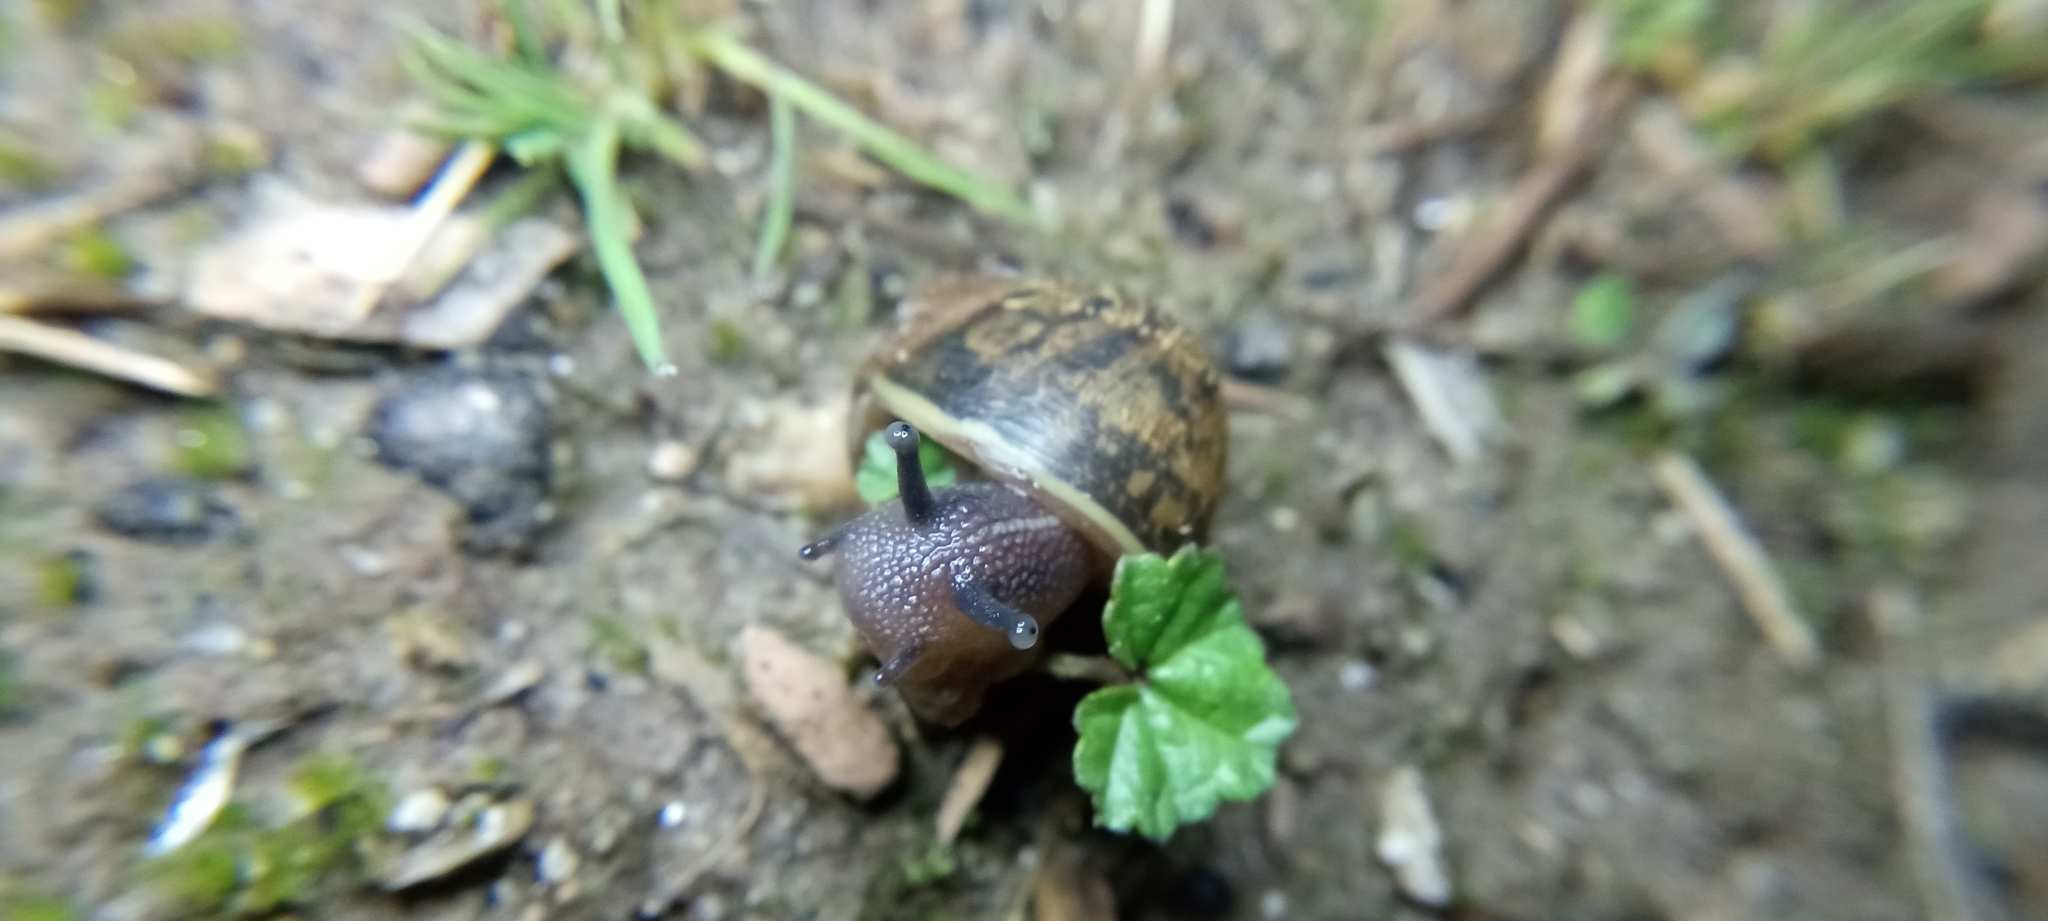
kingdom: Animalia
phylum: Mollusca
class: Gastropoda
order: Stylommatophora
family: Helicidae
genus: Cornu
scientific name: Cornu aspersum
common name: Brown garden snail
